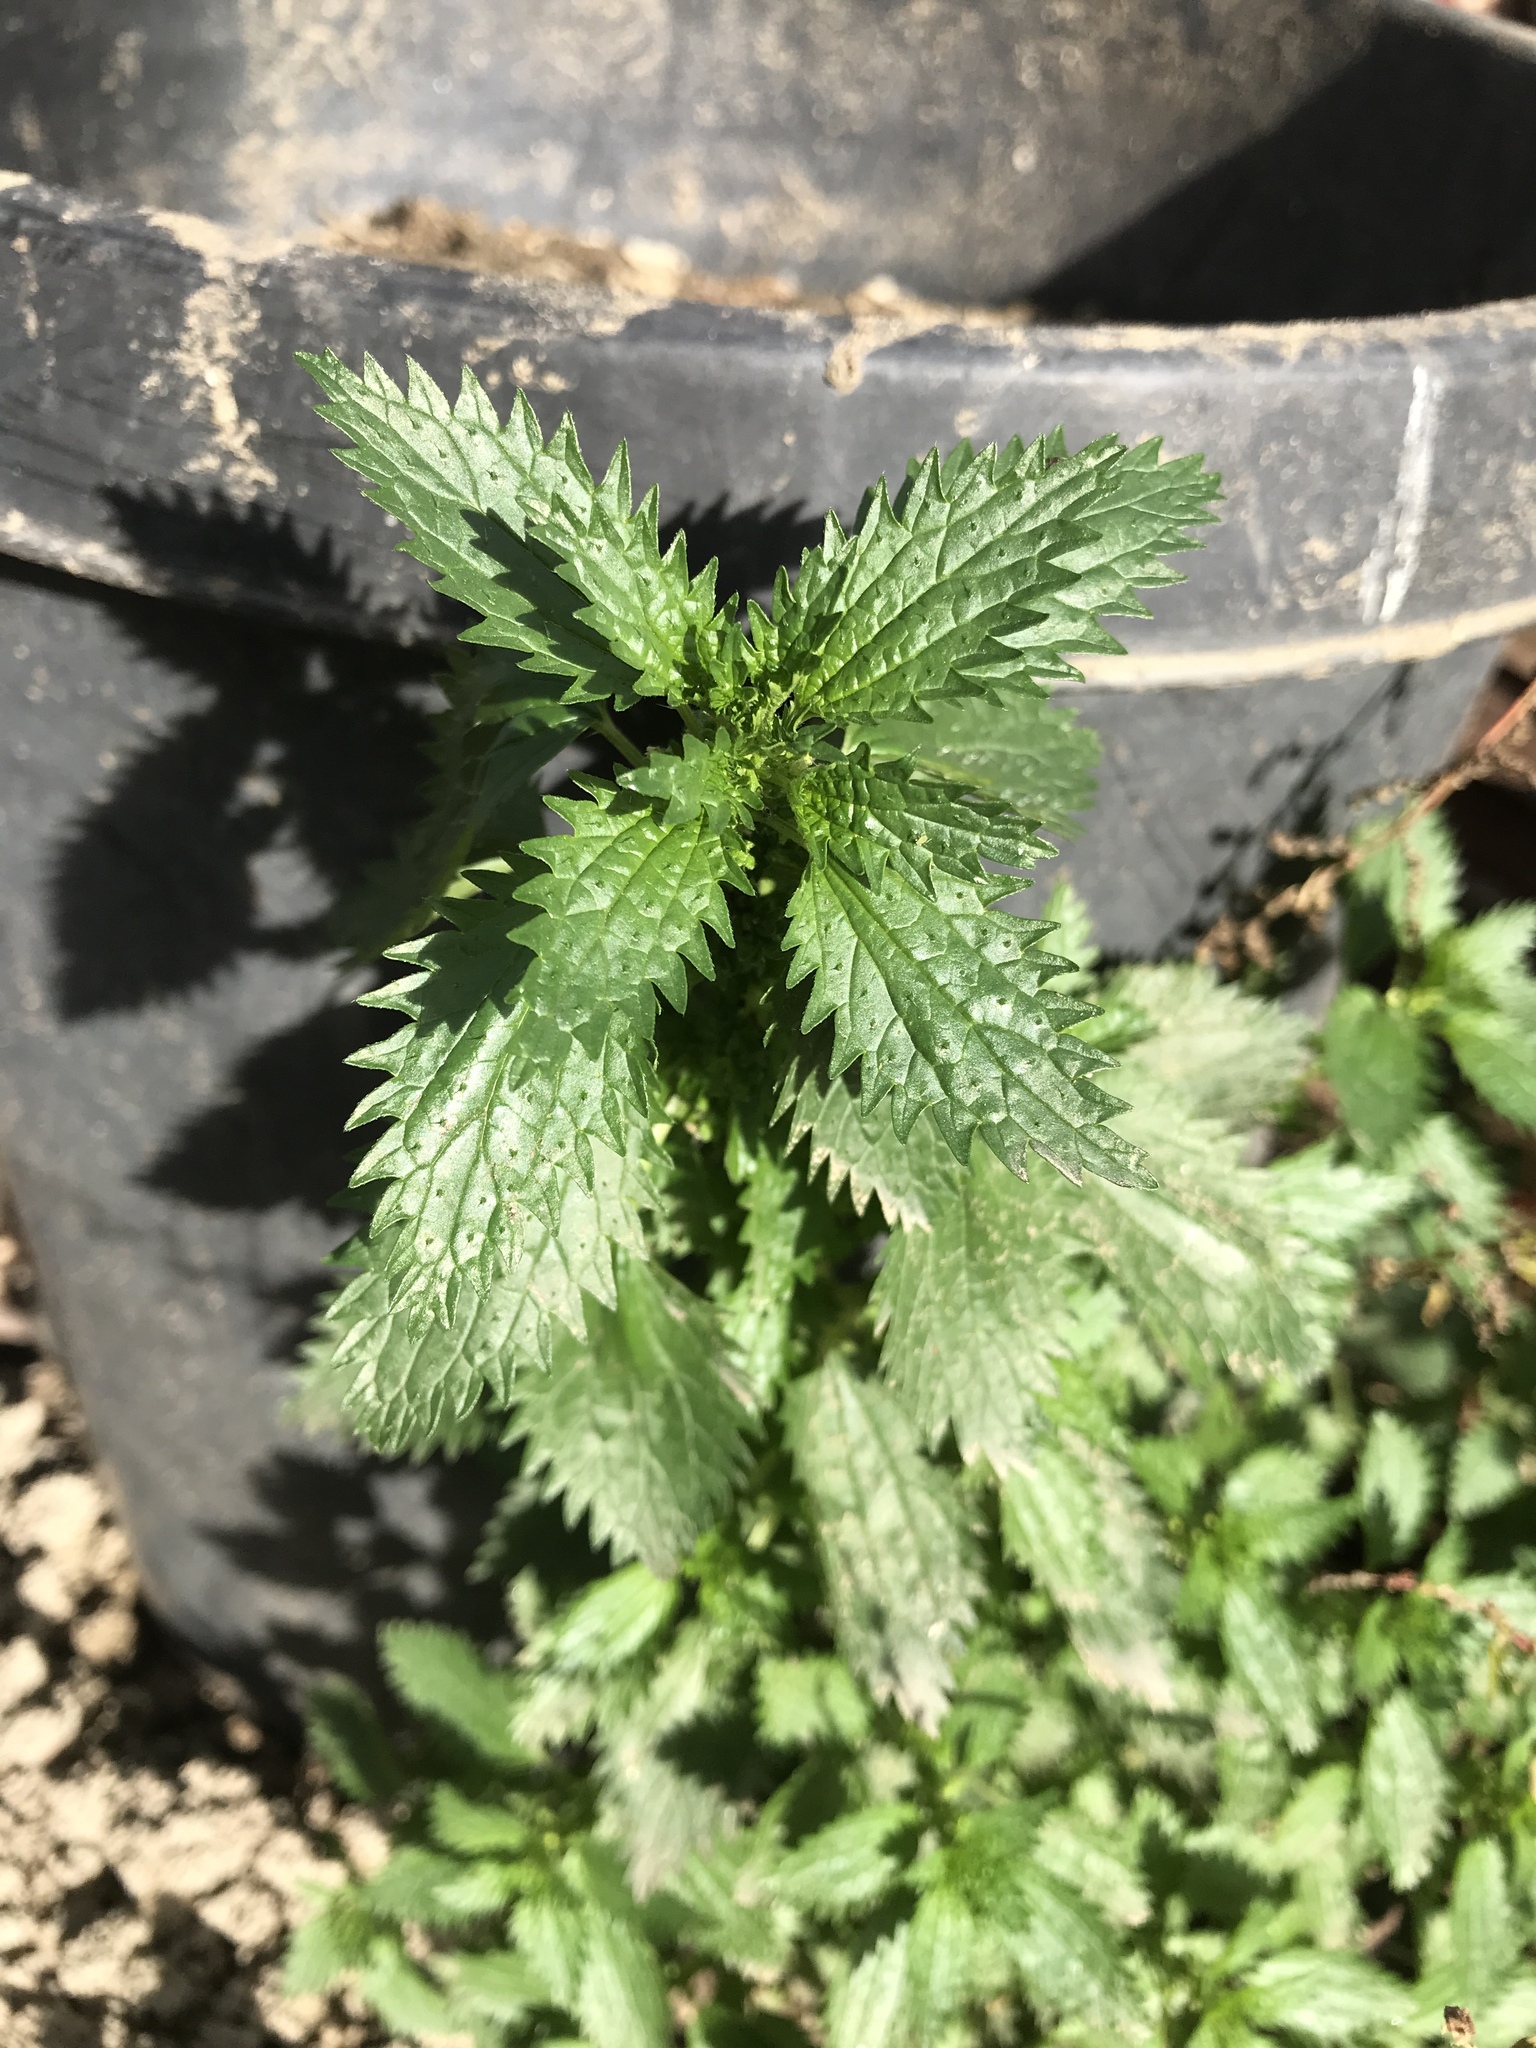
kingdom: Plantae
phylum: Tracheophyta
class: Magnoliopsida
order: Rosales
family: Urticaceae
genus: Urtica
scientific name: Urtica urens
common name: Dwarf nettle
